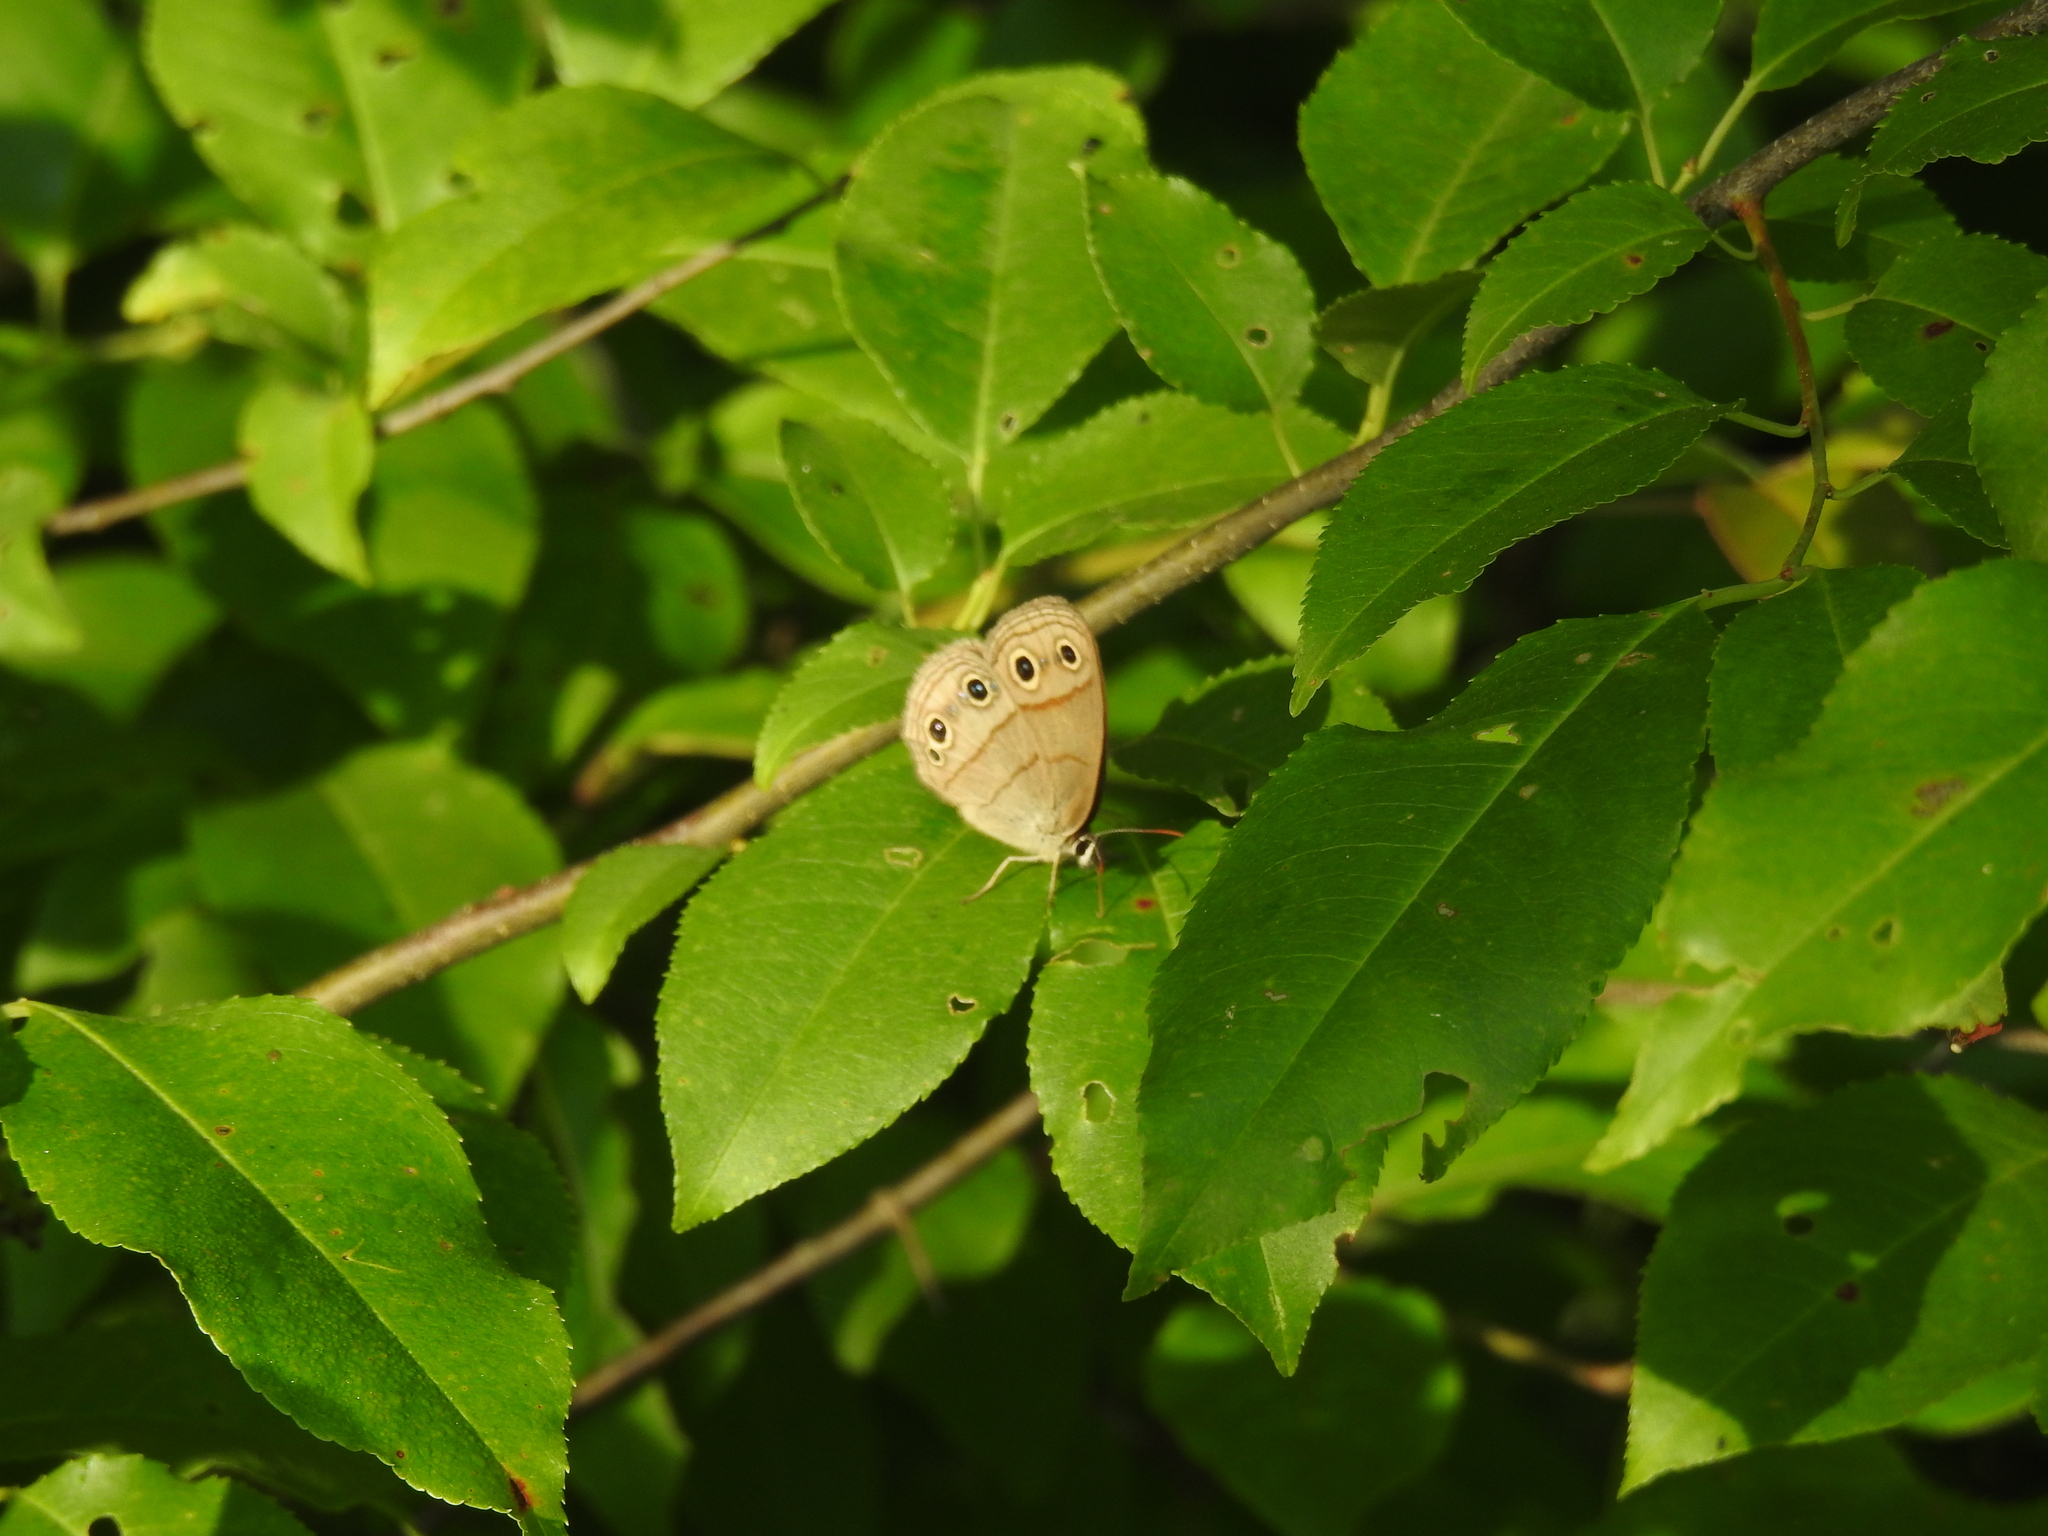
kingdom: Animalia
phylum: Arthropoda
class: Insecta
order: Lepidoptera
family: Nymphalidae
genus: Euptychia
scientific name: Euptychia cymela
